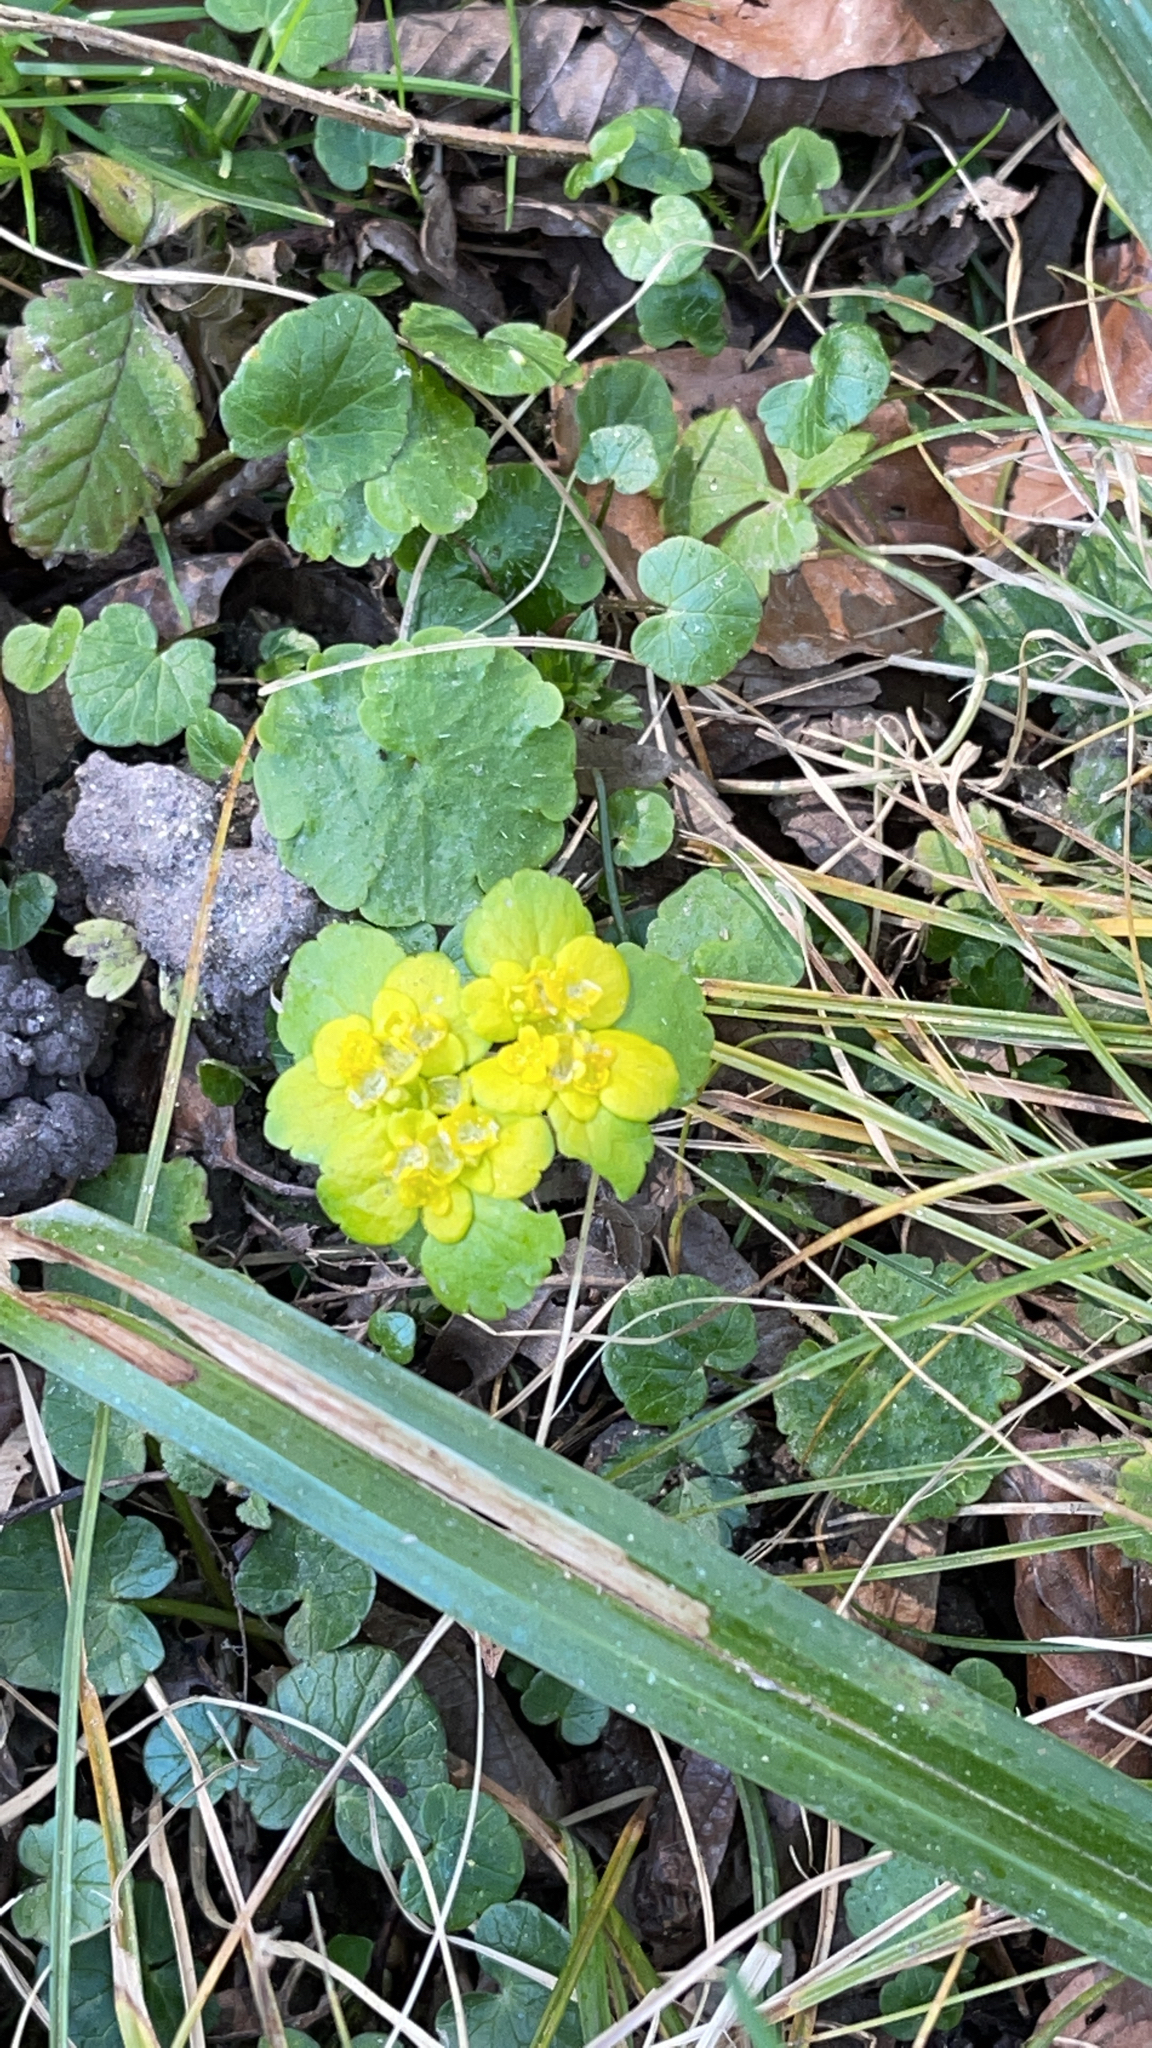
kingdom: Plantae
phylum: Tracheophyta
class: Magnoliopsida
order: Saxifragales
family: Saxifragaceae
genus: Chrysosplenium
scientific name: Chrysosplenium alternifolium
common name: Alternate-leaved golden-saxifrage
